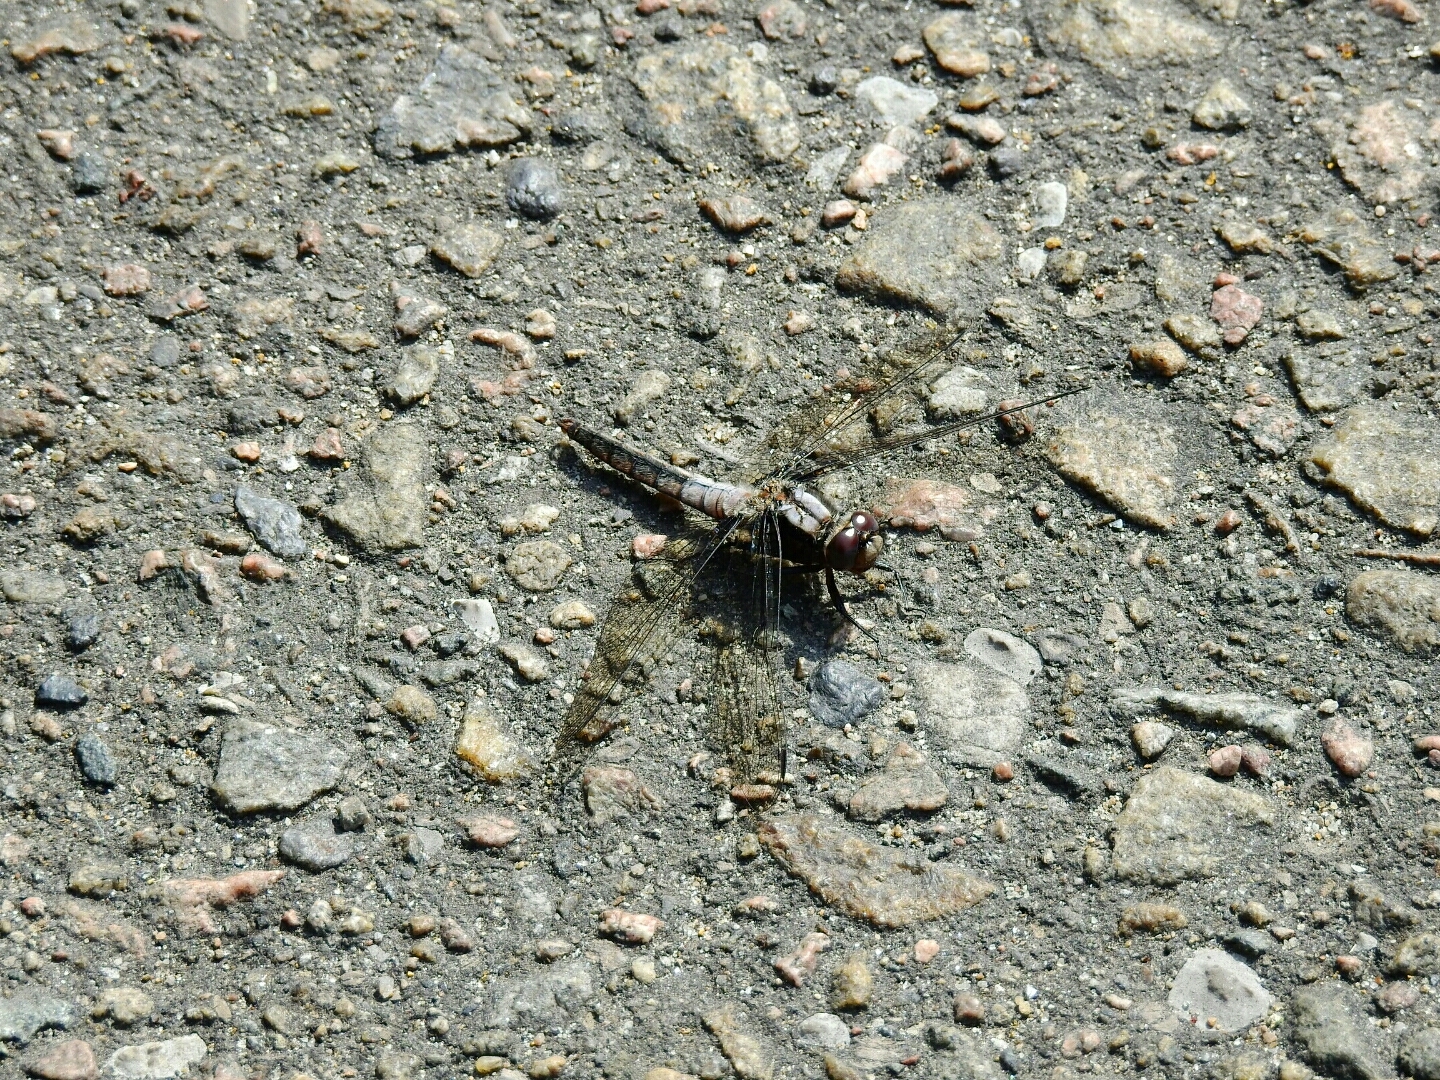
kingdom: Animalia
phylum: Arthropoda
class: Insecta
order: Odonata
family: Libellulidae
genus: Ladona
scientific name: Ladona julia
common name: Chalk-fronted corporal
